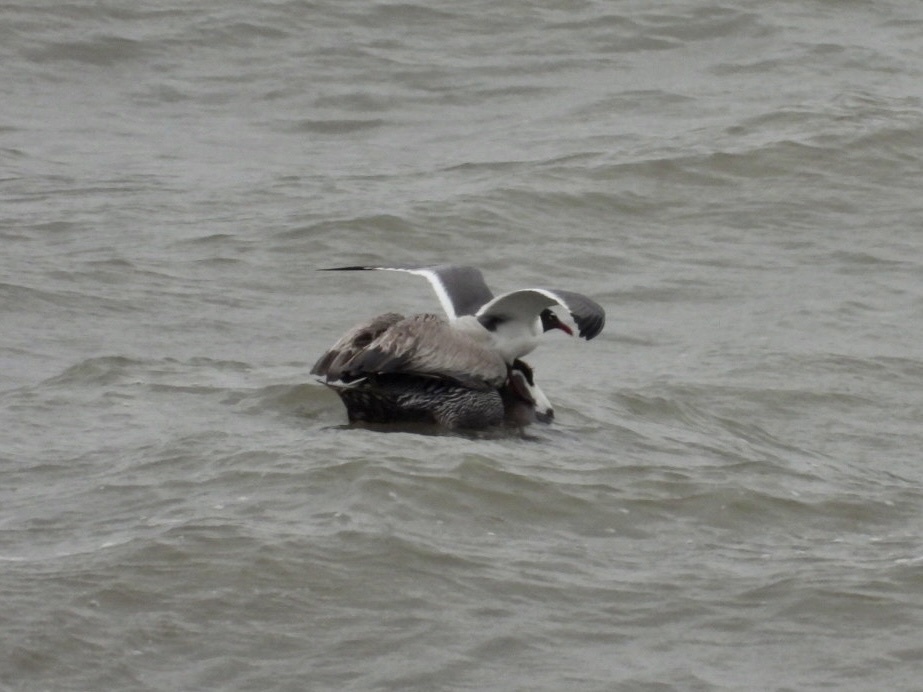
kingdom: Animalia
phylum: Chordata
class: Aves
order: Pelecaniformes
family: Pelecanidae
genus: Pelecanus
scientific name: Pelecanus occidentalis
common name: Brown pelican
